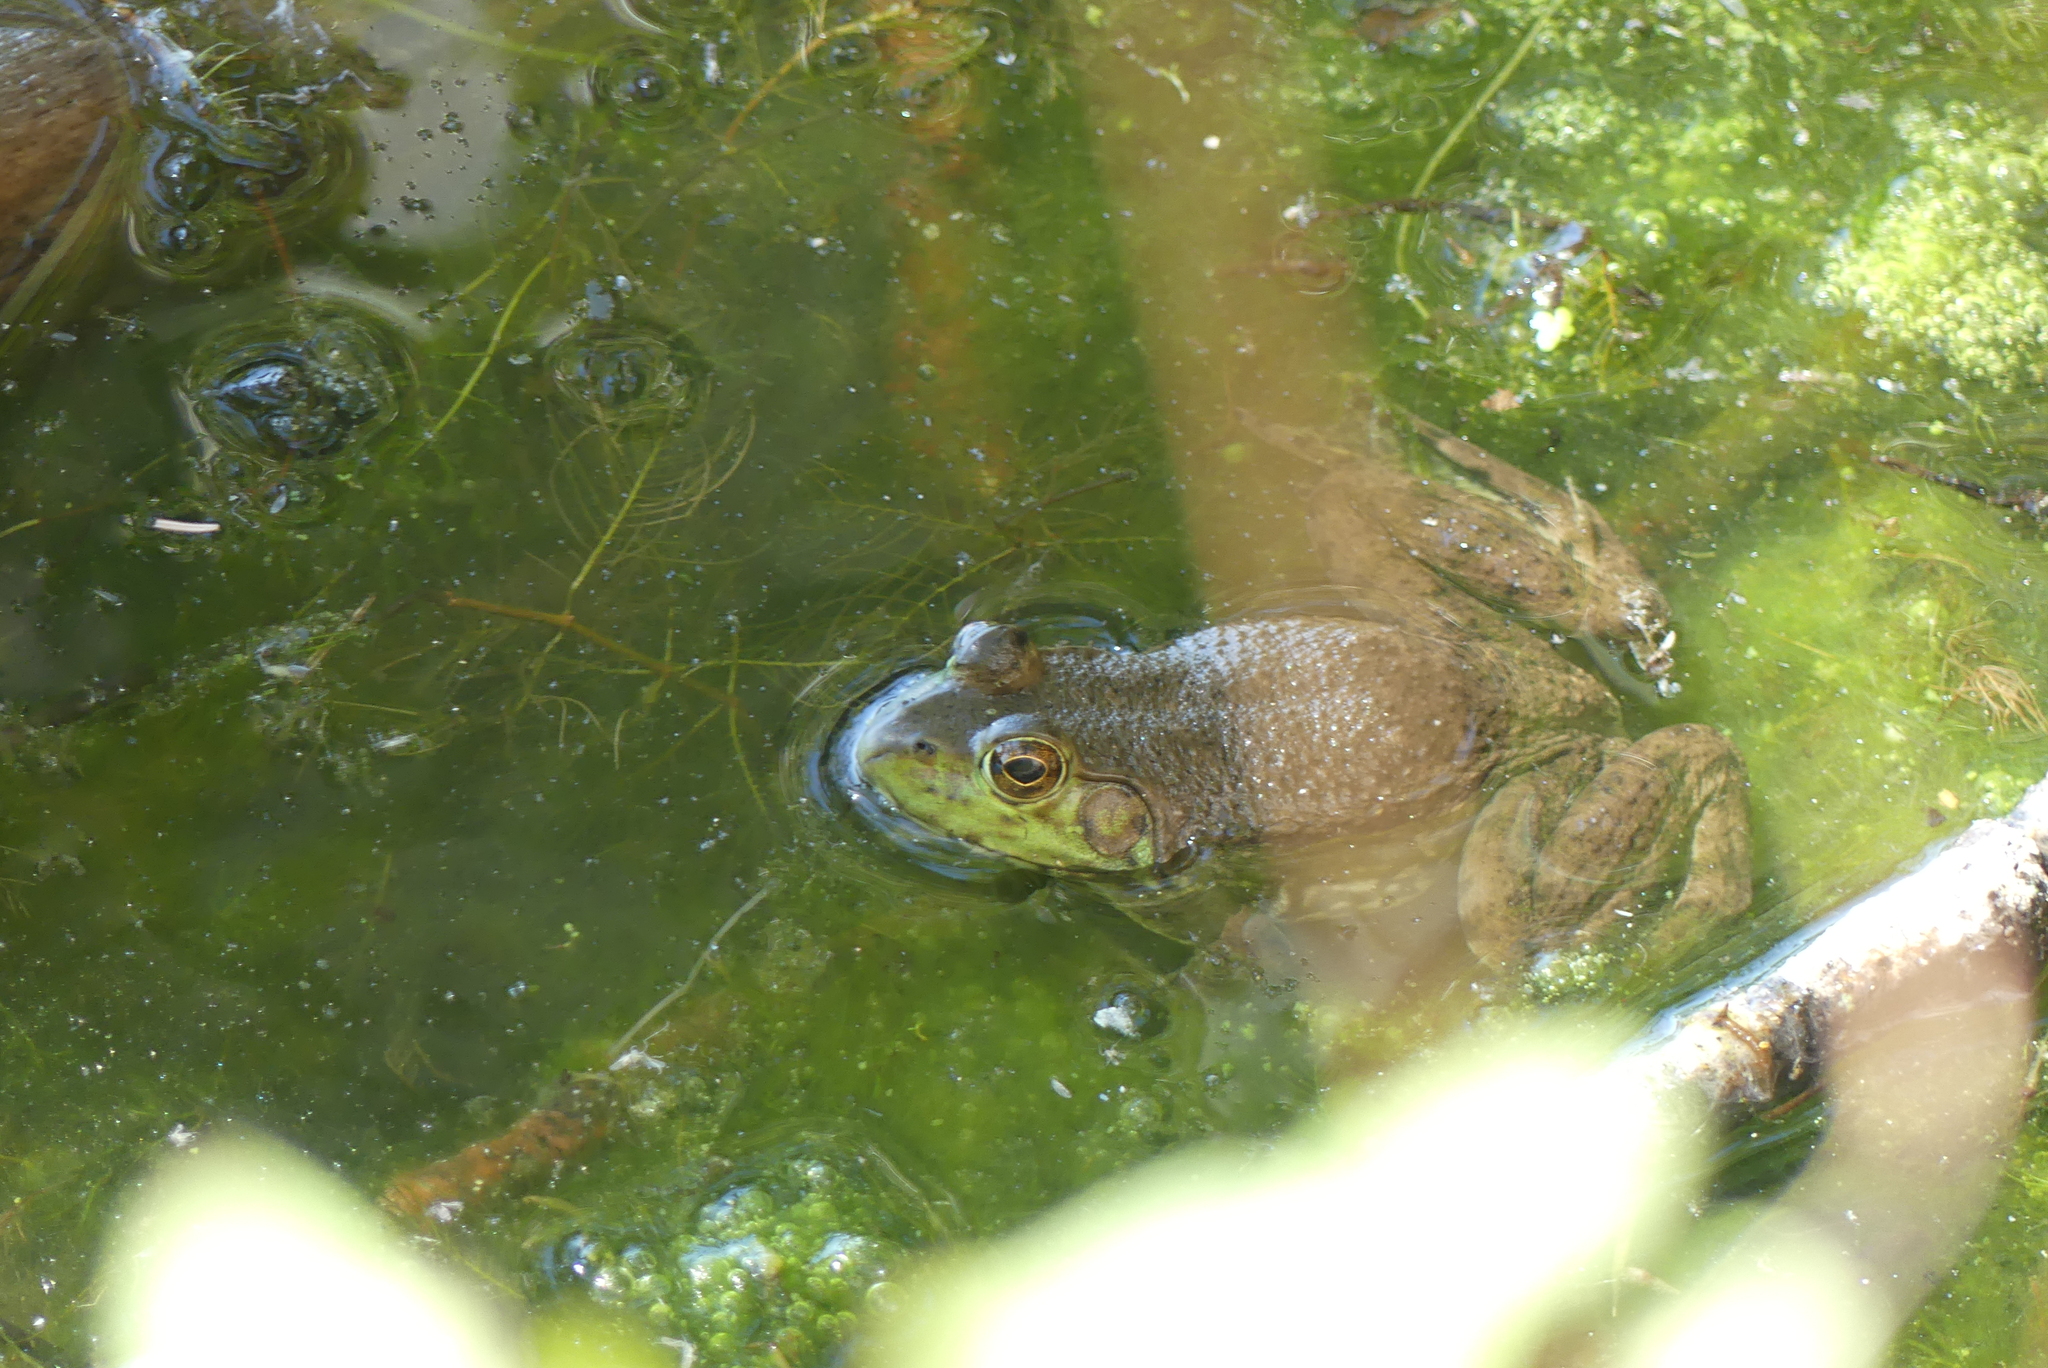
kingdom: Animalia
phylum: Chordata
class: Amphibia
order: Anura
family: Ranidae
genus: Lithobates
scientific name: Lithobates catesbeianus
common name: American bullfrog
